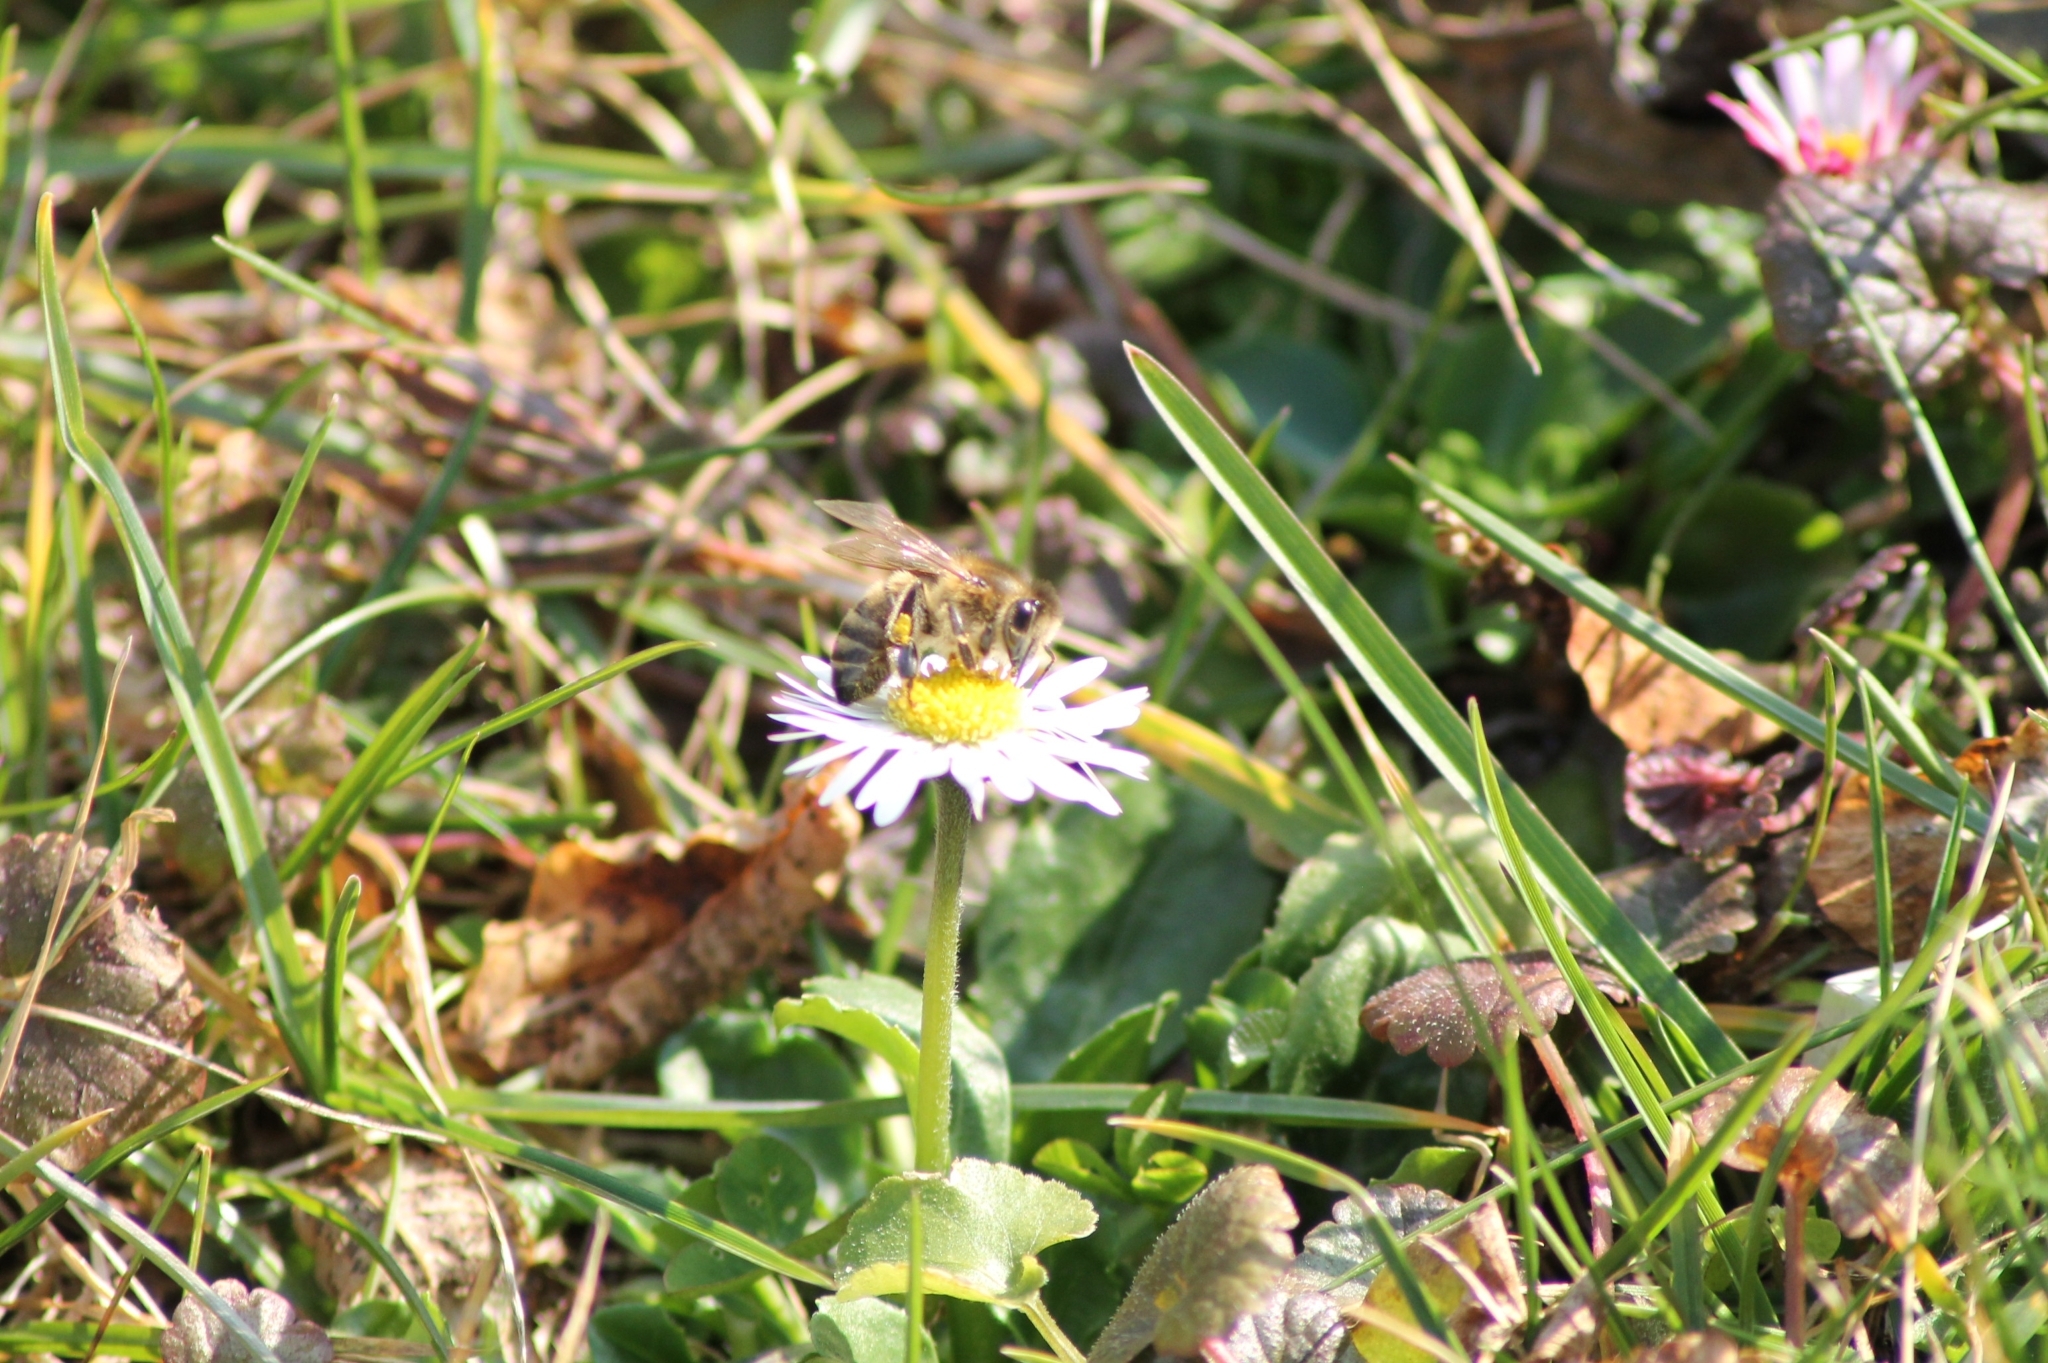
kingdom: Animalia
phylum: Arthropoda
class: Insecta
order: Hymenoptera
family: Apidae
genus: Apis
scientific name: Apis mellifera
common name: Honey bee
